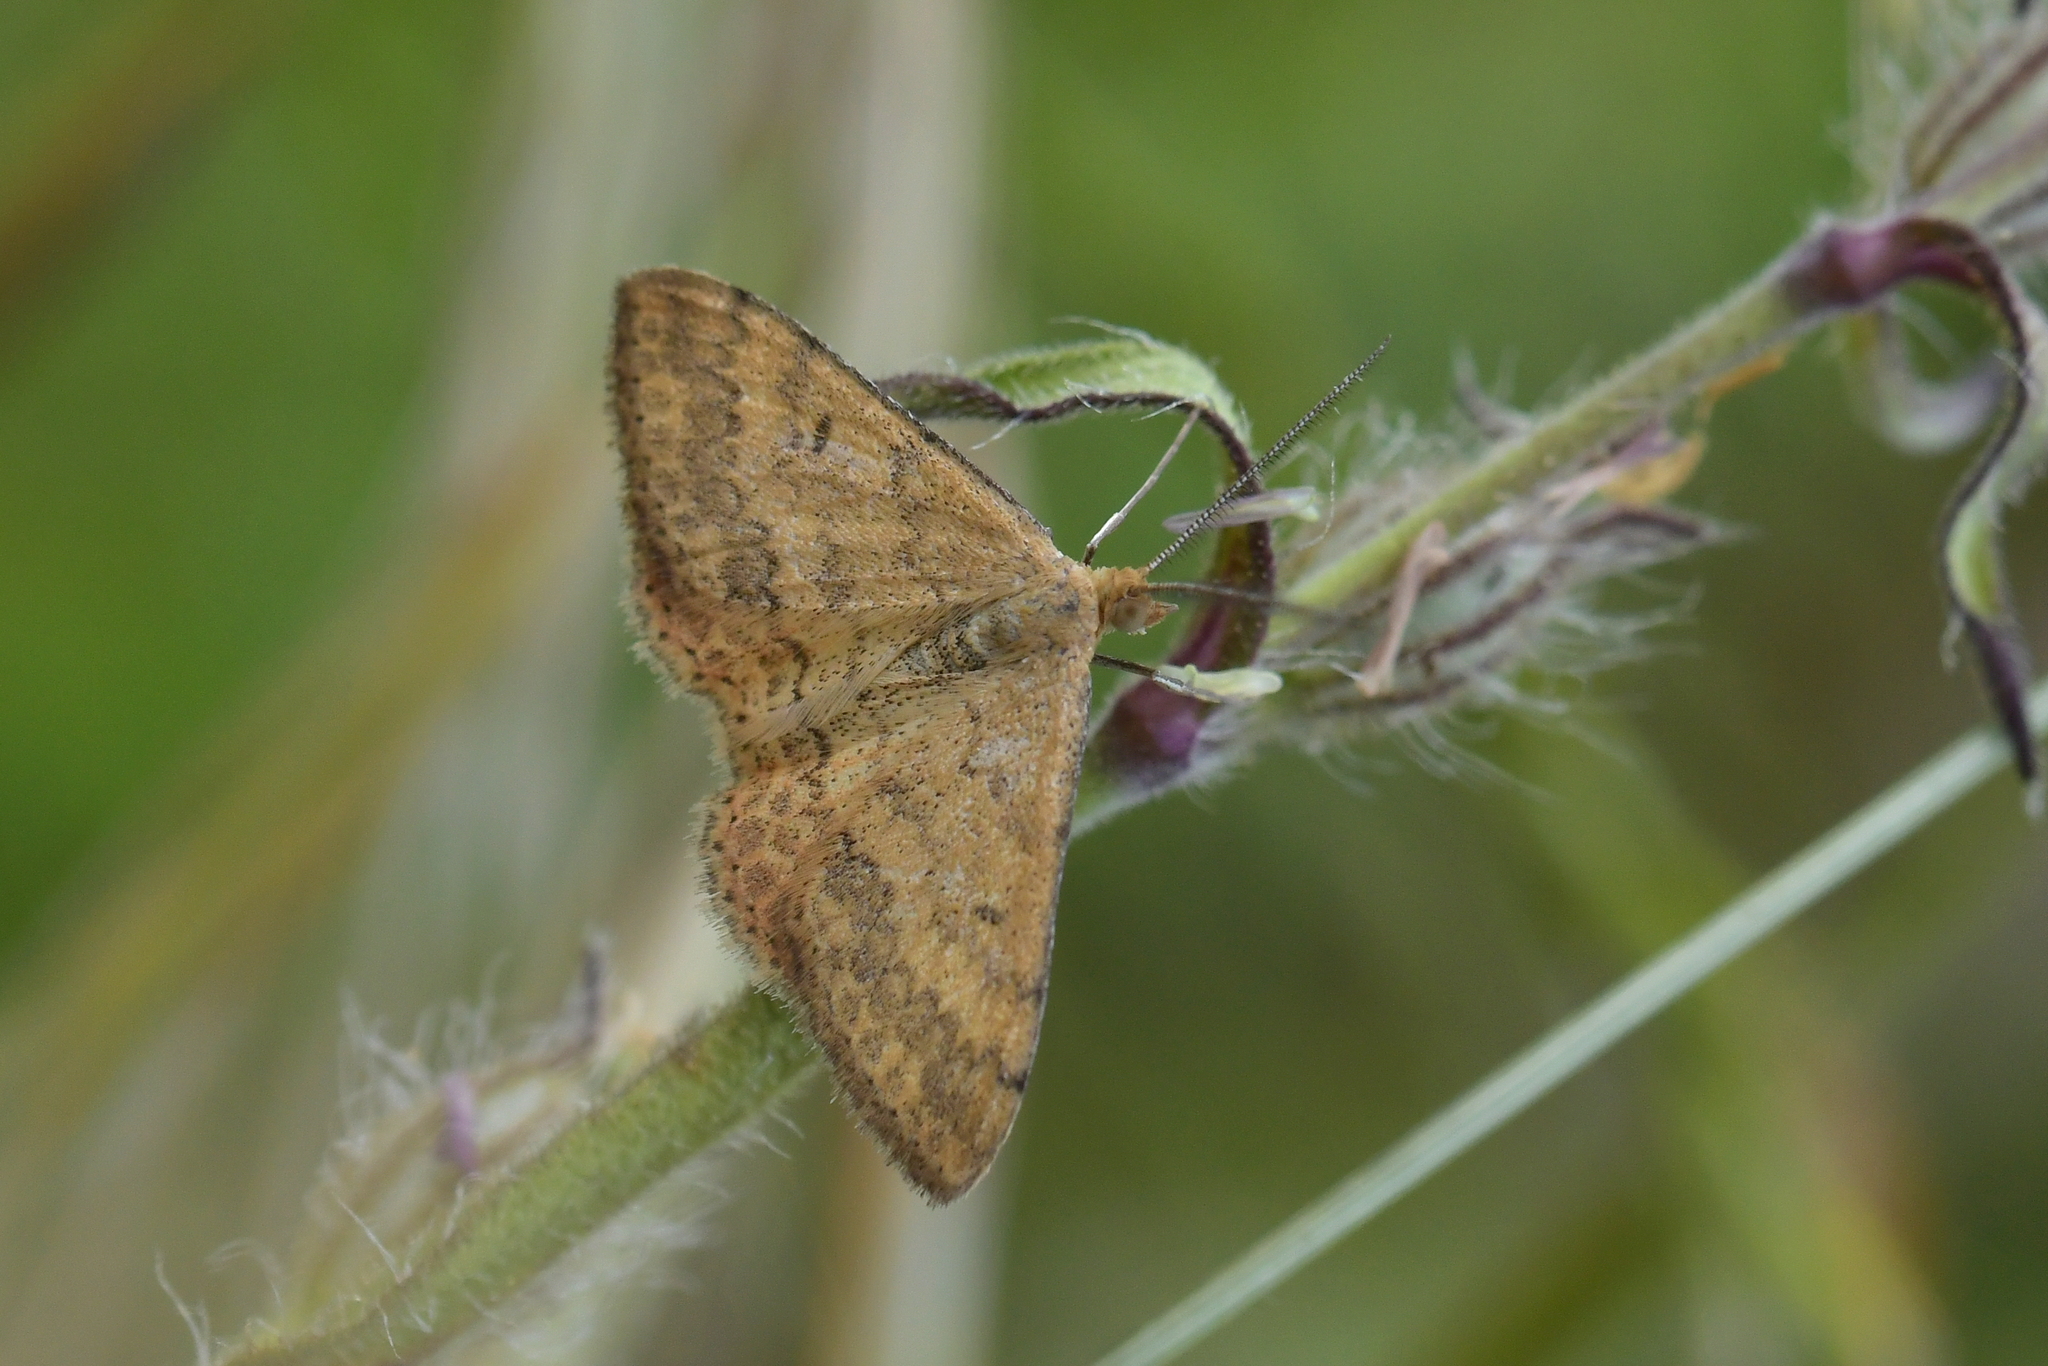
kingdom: Animalia
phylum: Arthropoda
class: Insecta
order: Lepidoptera
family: Geometridae
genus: Scopula
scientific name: Scopula rubraria
